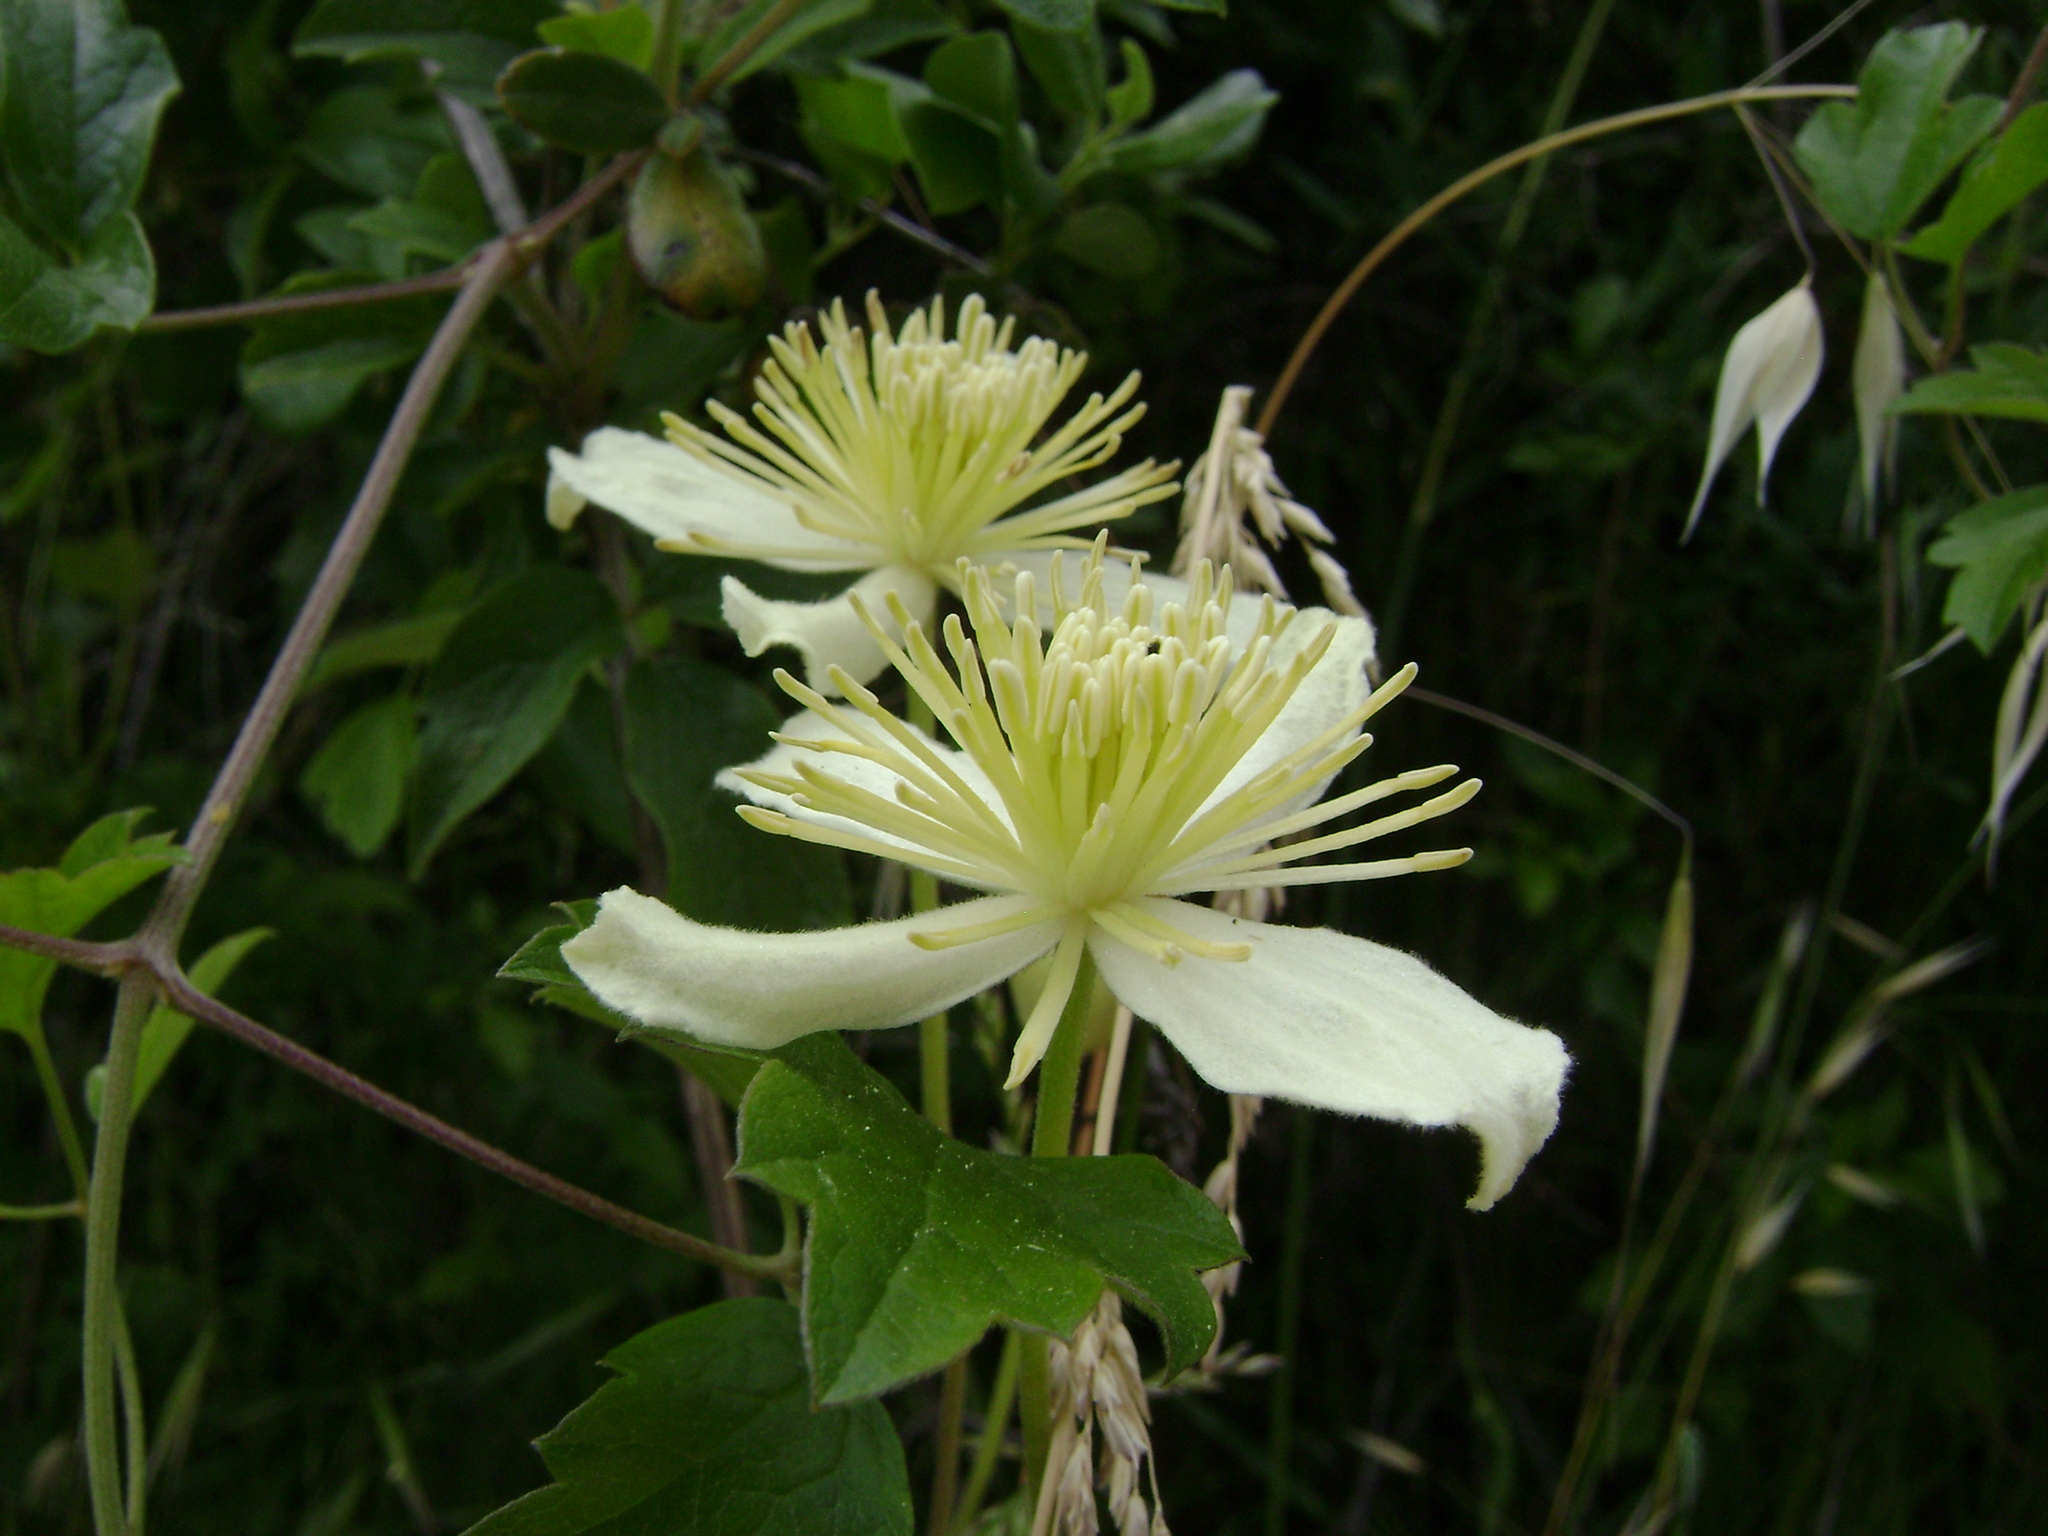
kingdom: Plantae
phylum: Tracheophyta
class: Magnoliopsida
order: Ranunculales
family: Ranunculaceae
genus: Clematis
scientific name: Clematis lasiantha
